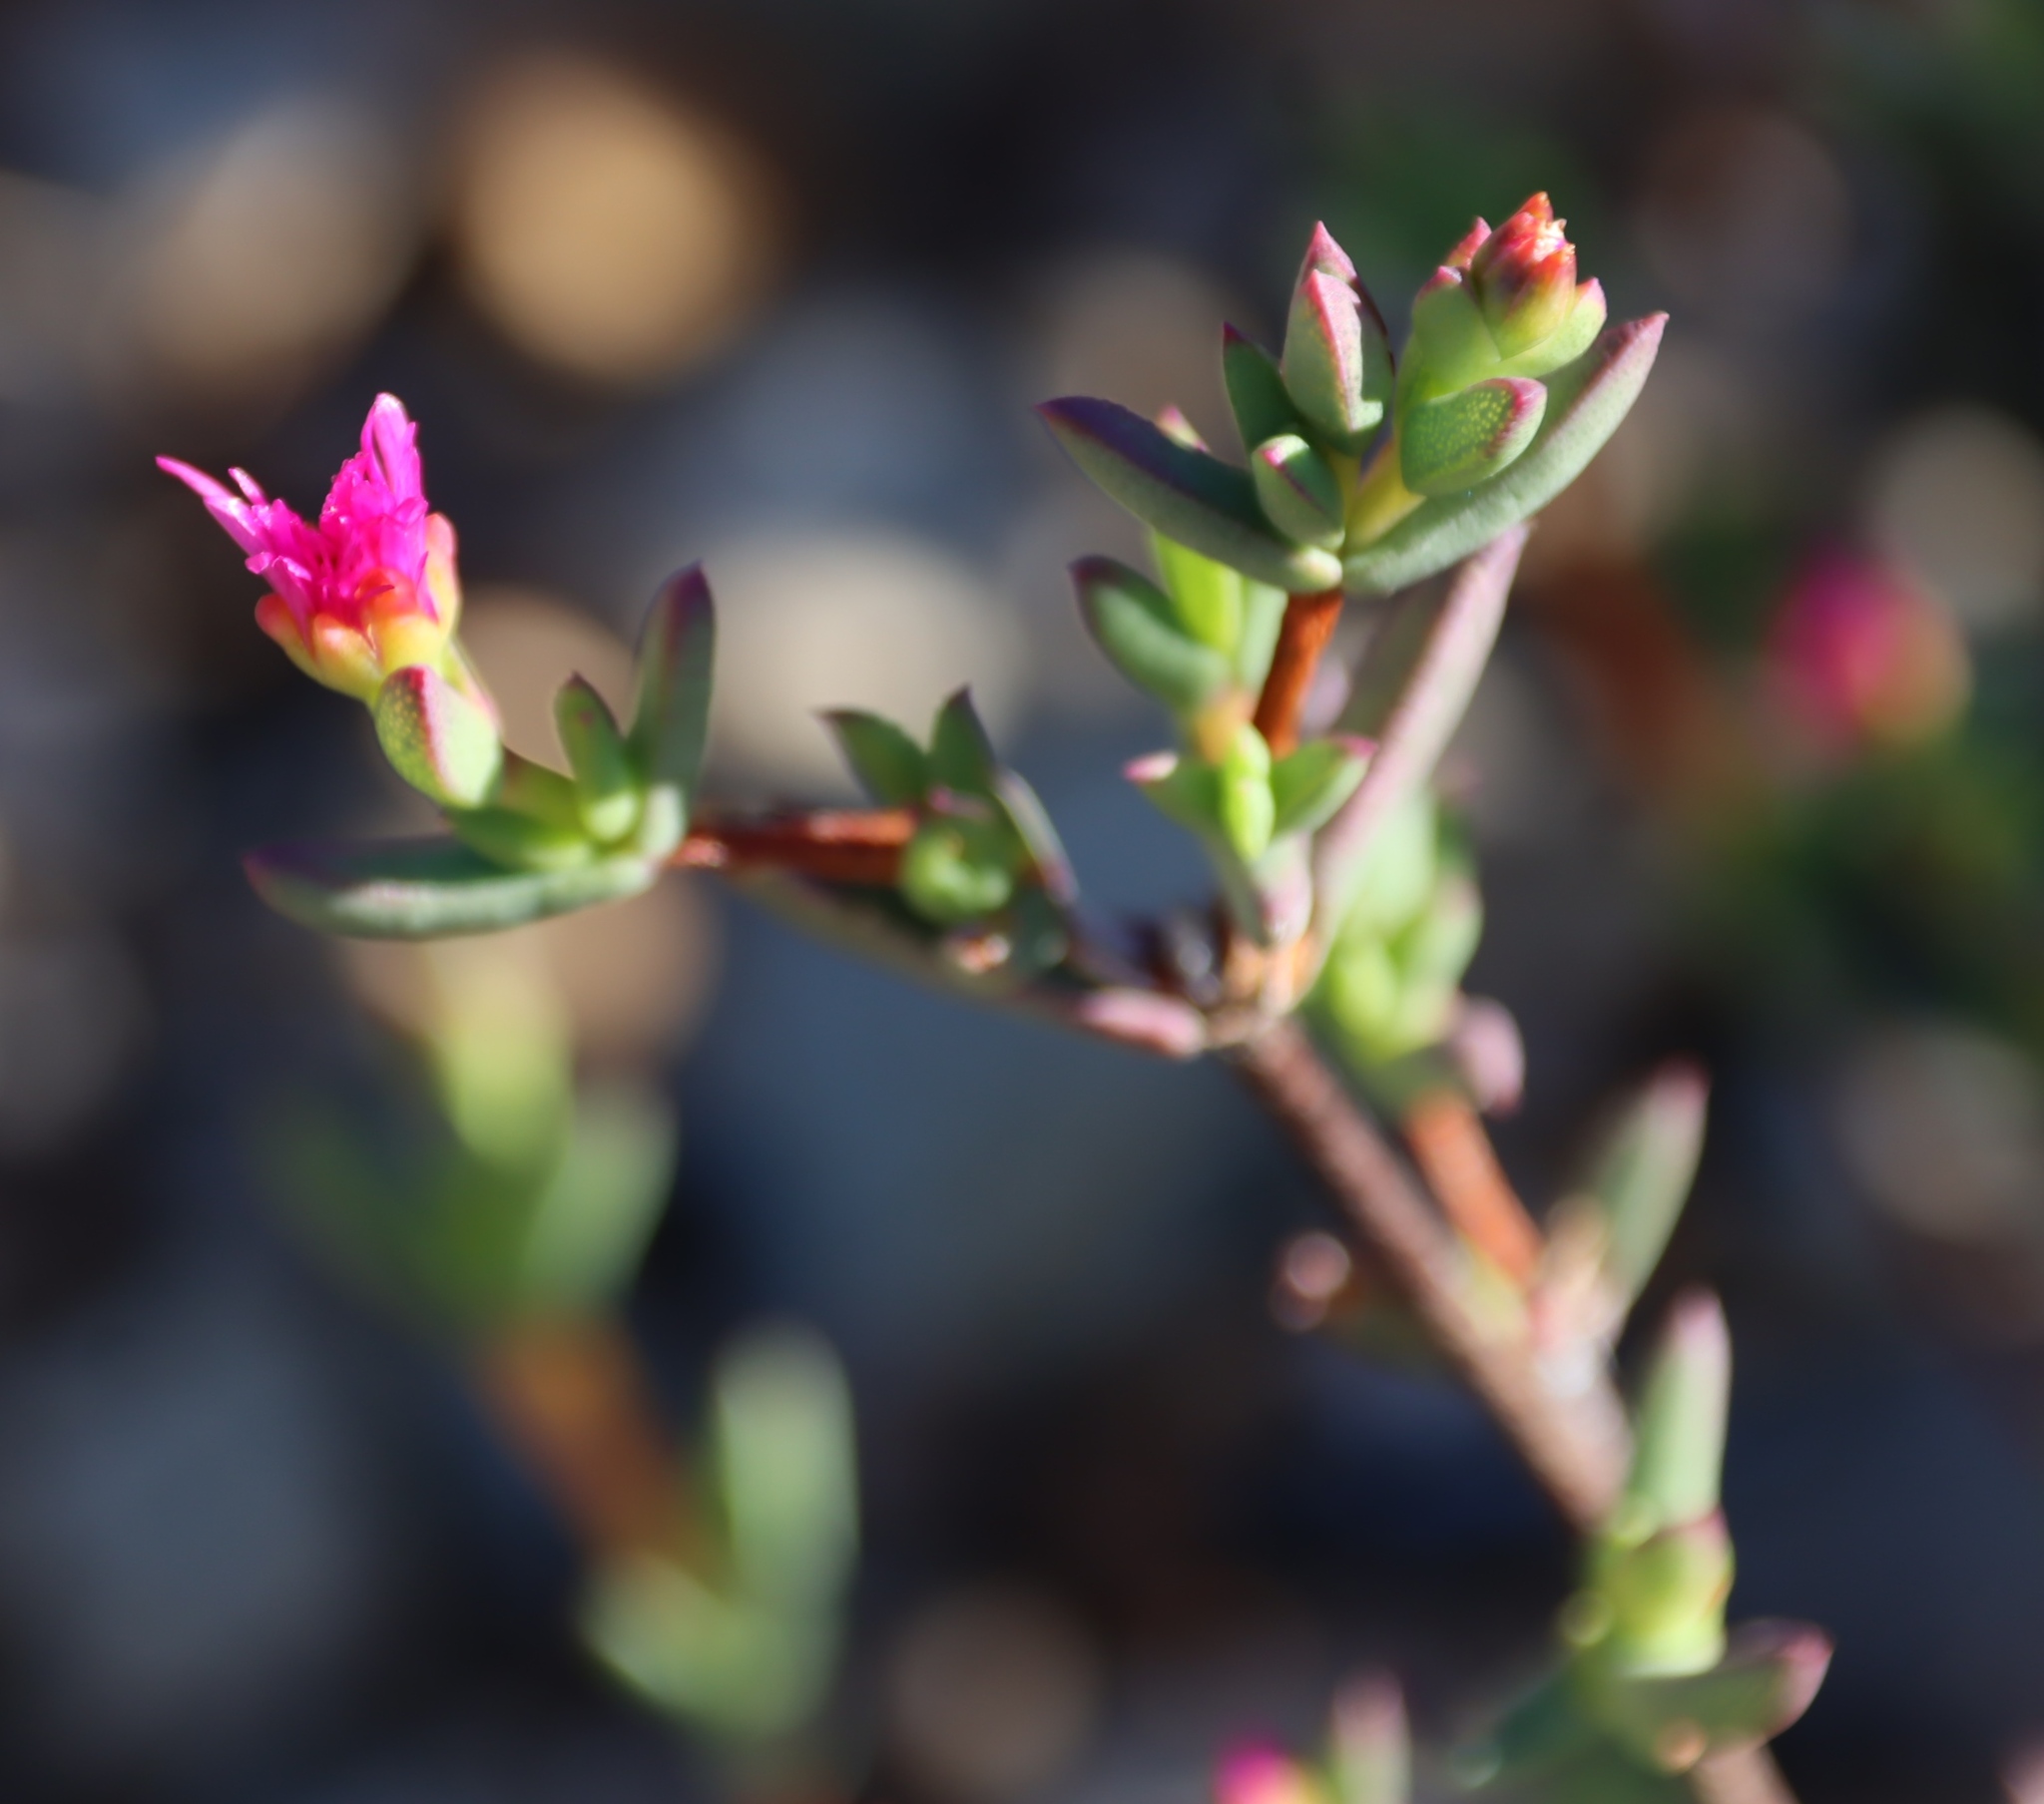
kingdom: Plantae
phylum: Tracheophyta
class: Magnoliopsida
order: Caryophyllales
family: Aizoaceae
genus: Esterhuysenia
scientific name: Esterhuysenia knysnana
